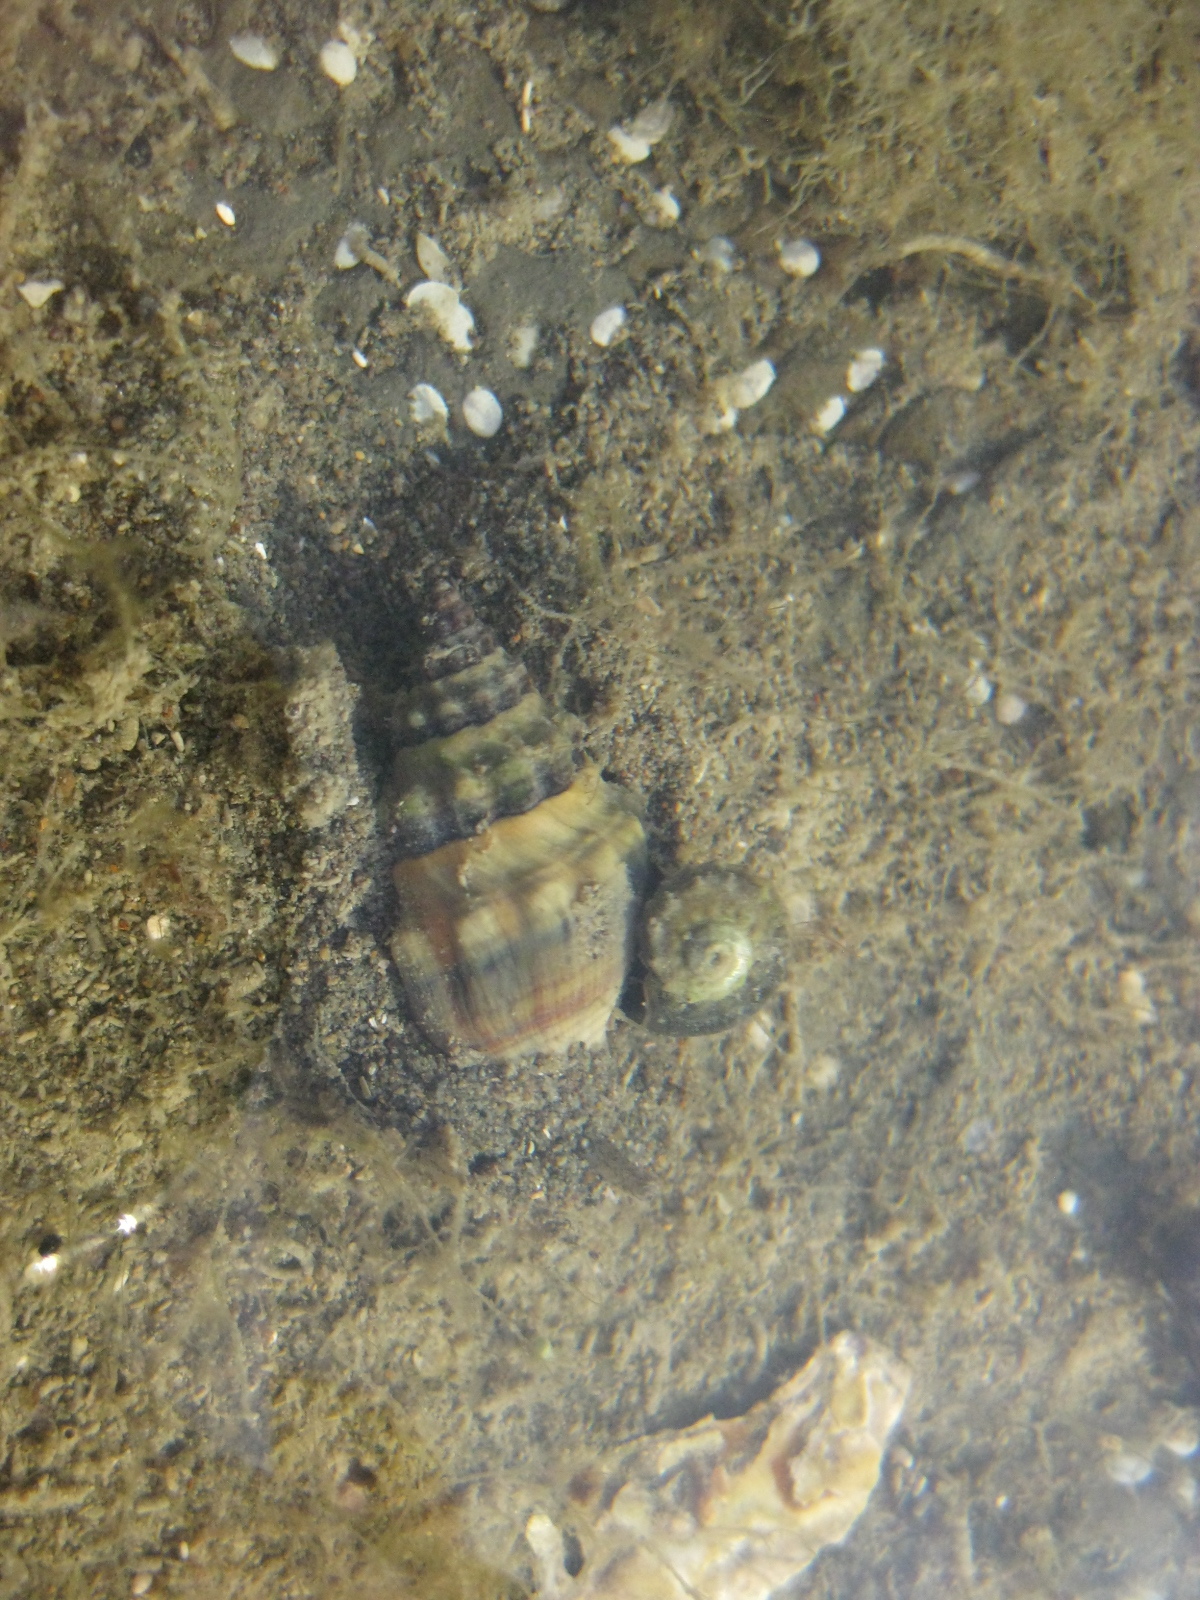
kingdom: Animalia
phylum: Mollusca
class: Gastropoda
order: Neogastropoda
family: Cominellidae
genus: Cominella
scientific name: Cominella glandiformis
